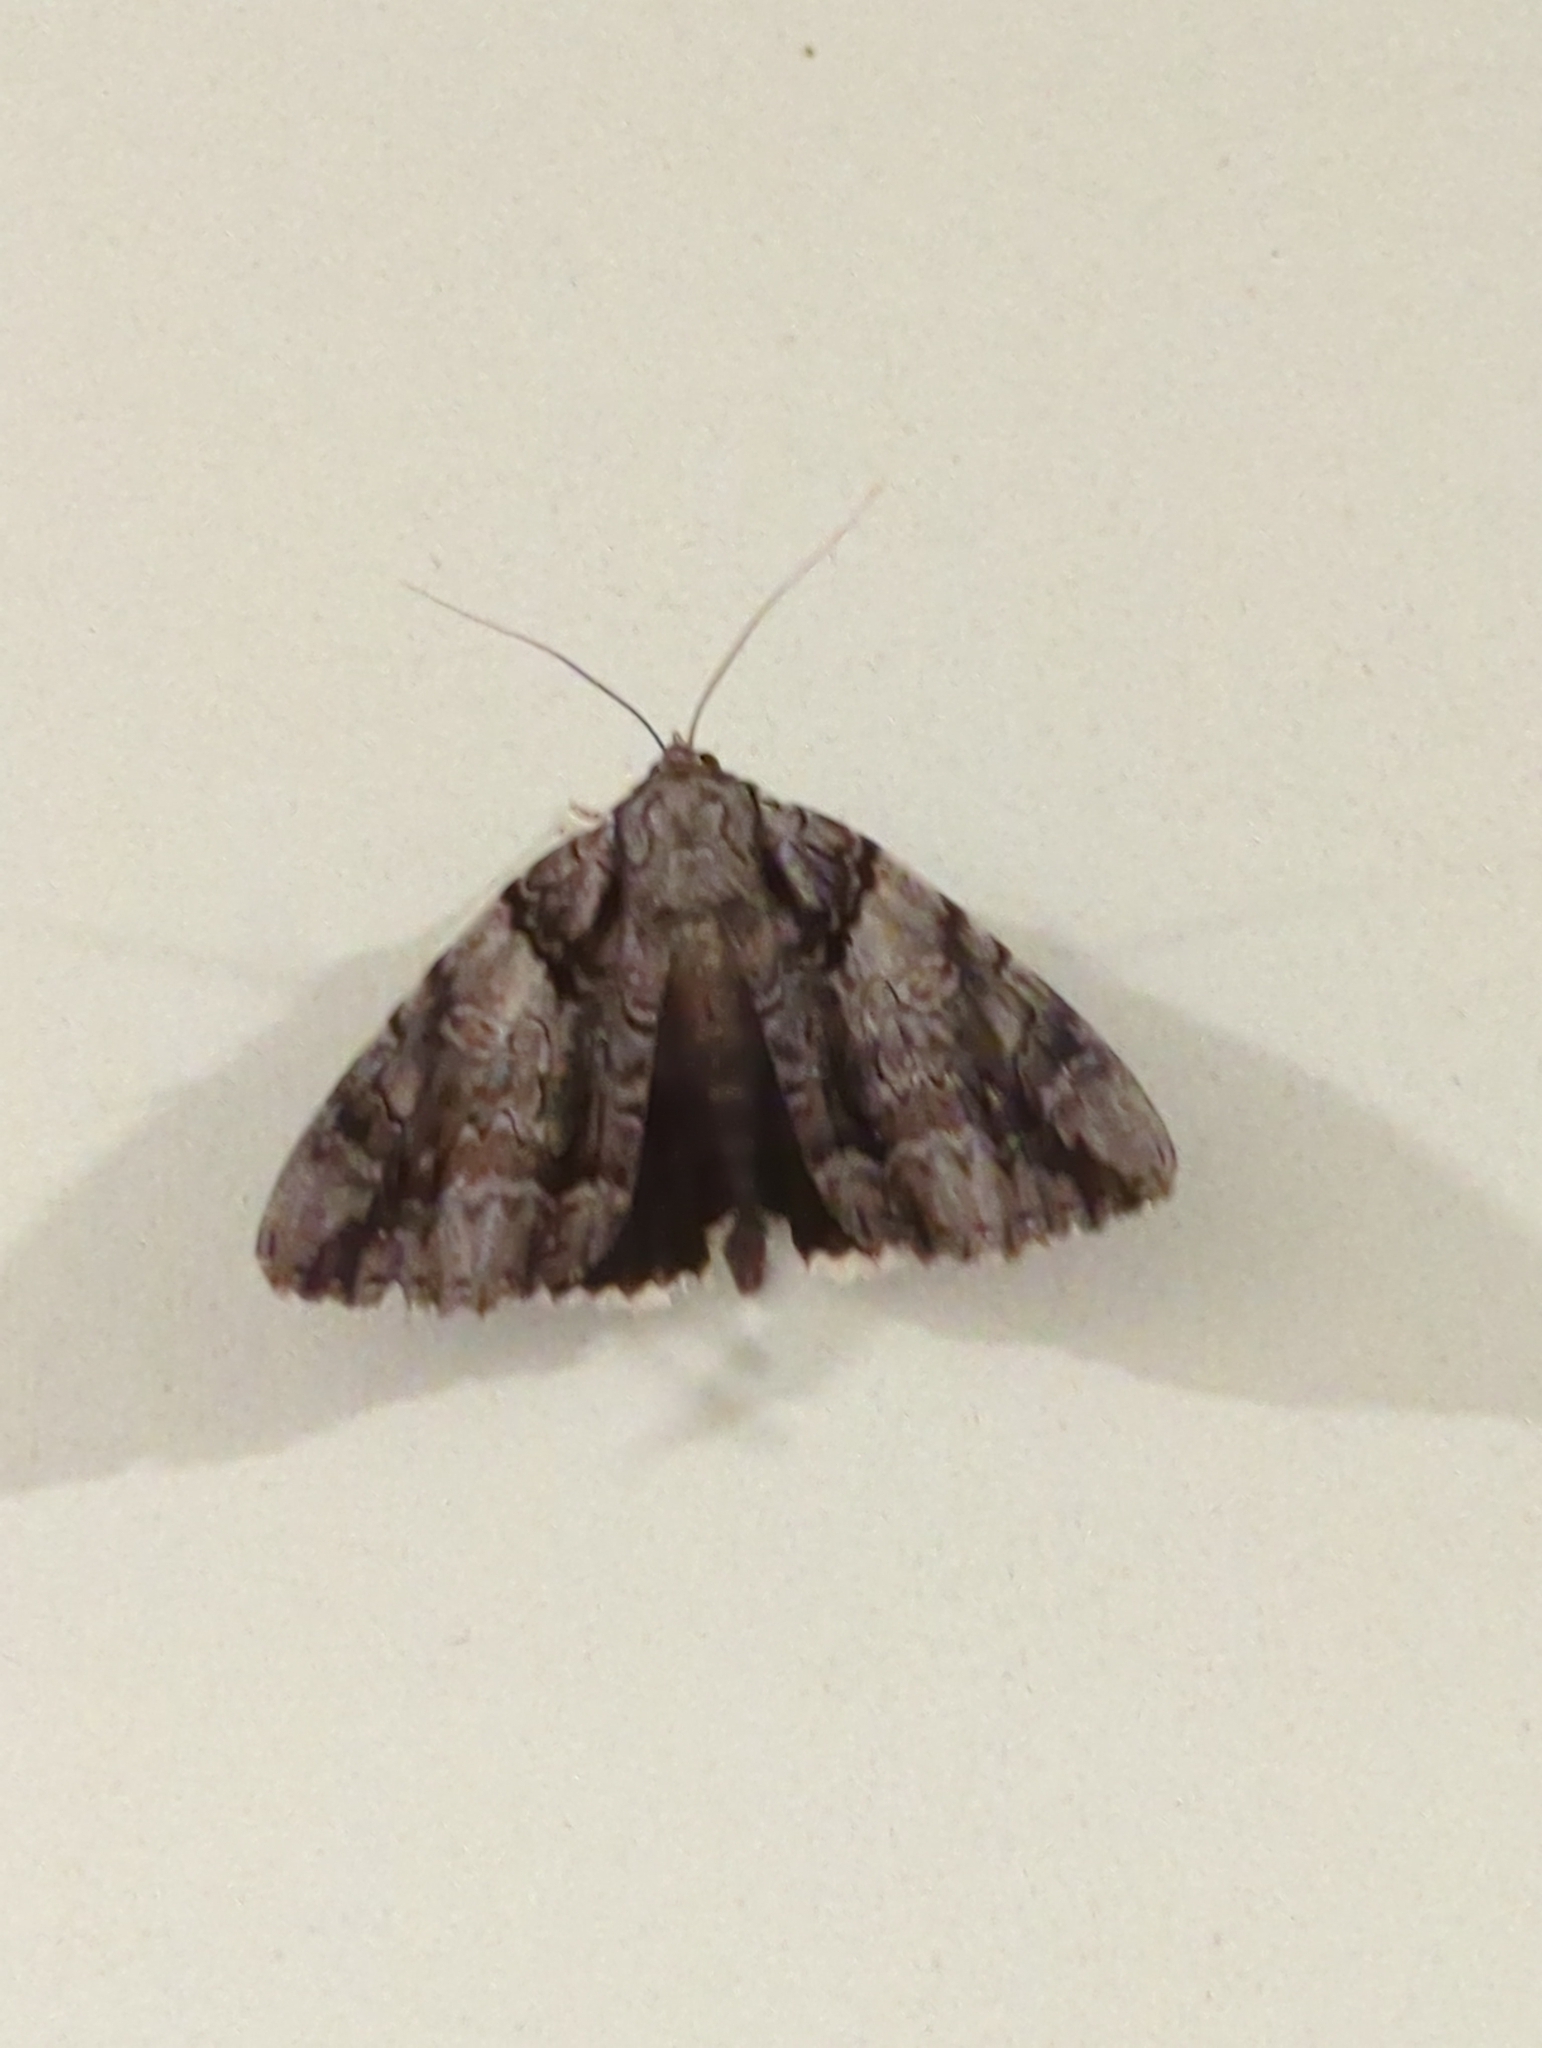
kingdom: Animalia
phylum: Arthropoda
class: Insecta
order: Lepidoptera
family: Erebidae
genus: Catocala
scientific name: Catocala vidua
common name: The widow
